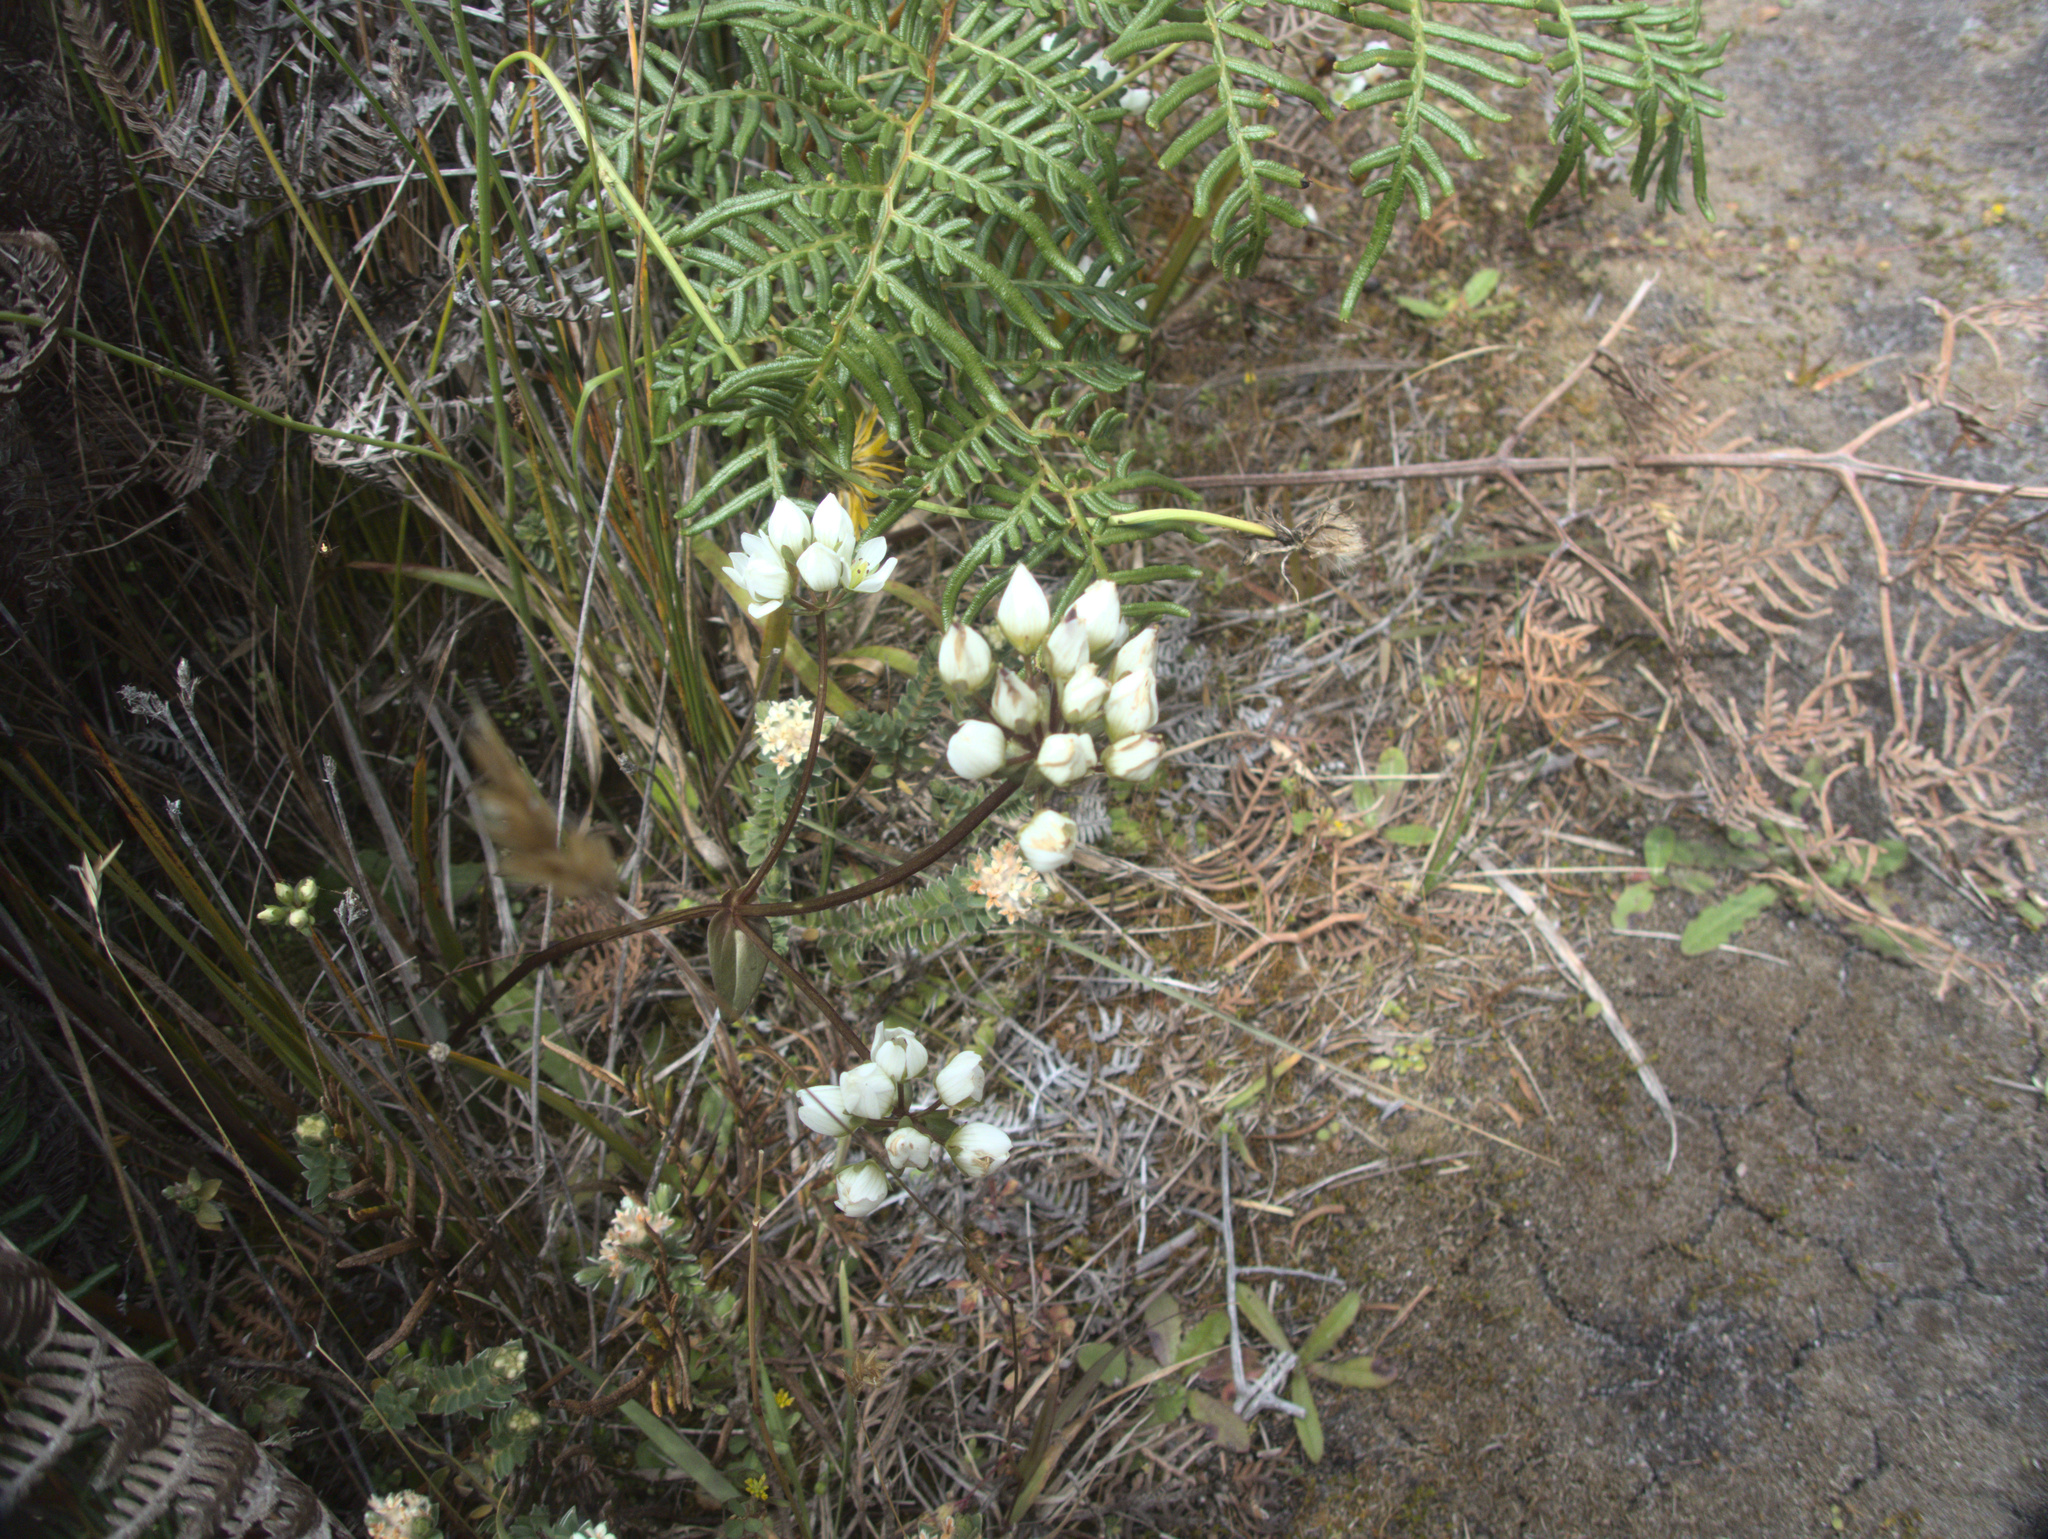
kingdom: Plantae
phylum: Tracheophyta
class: Magnoliopsida
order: Gentianales
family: Gentianaceae
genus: Gentianella
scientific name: Gentianella chathamica
